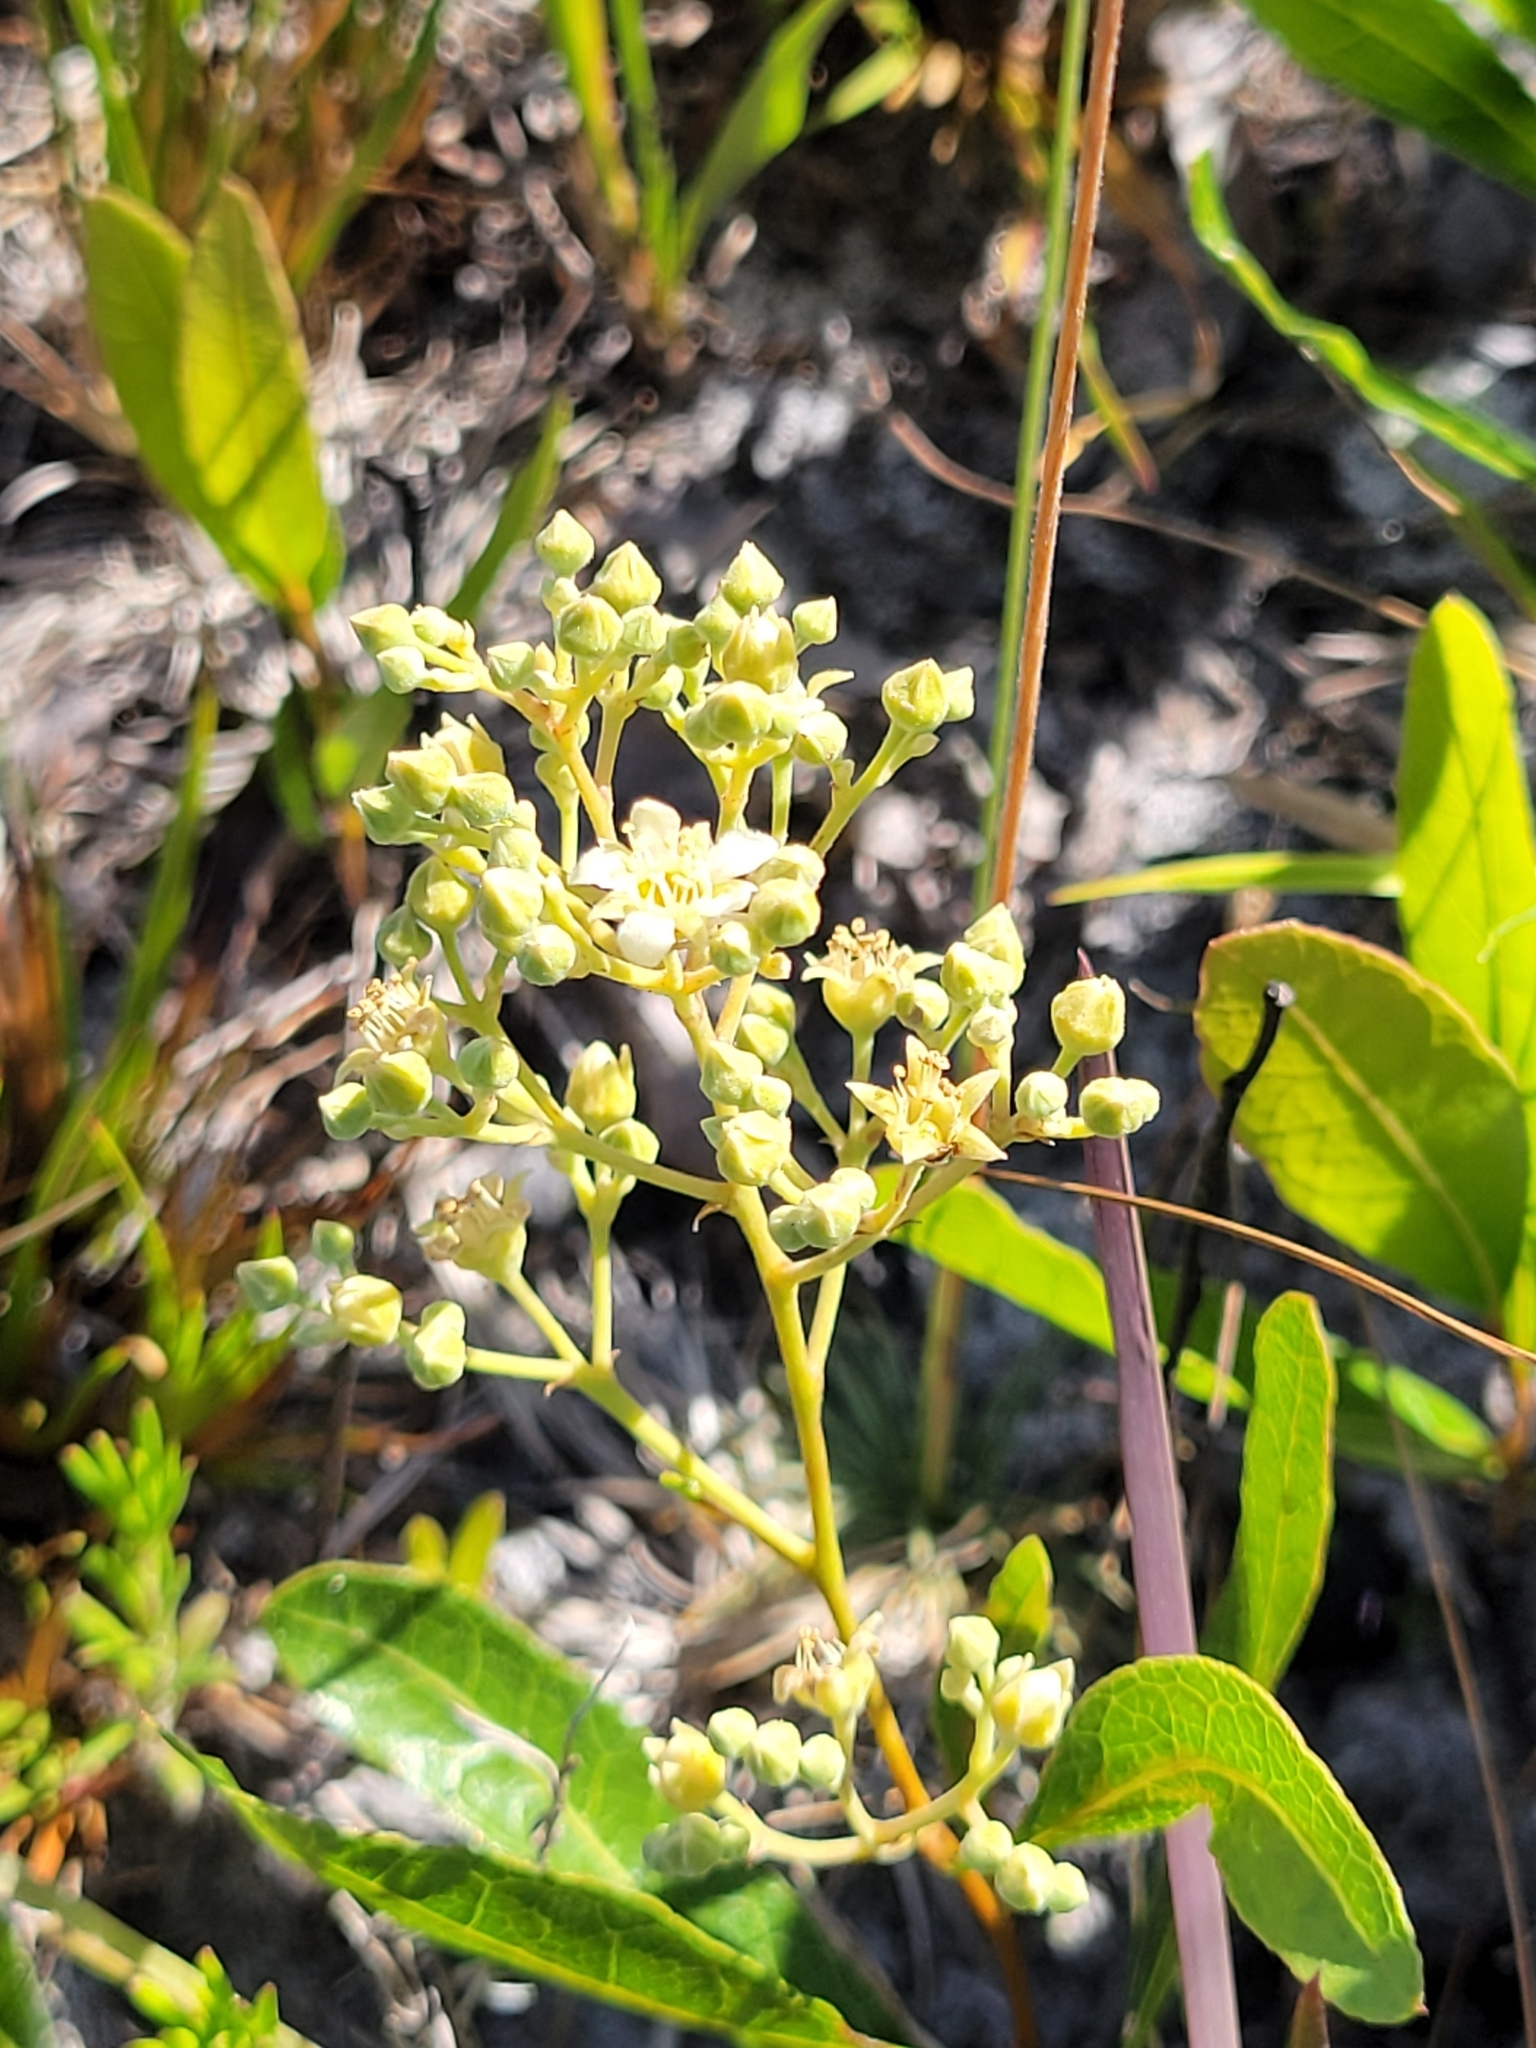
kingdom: Plantae
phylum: Tracheophyta
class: Magnoliopsida
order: Malpighiales
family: Chrysobalanaceae
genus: Geobalanus
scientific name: Geobalanus oblongifolius
